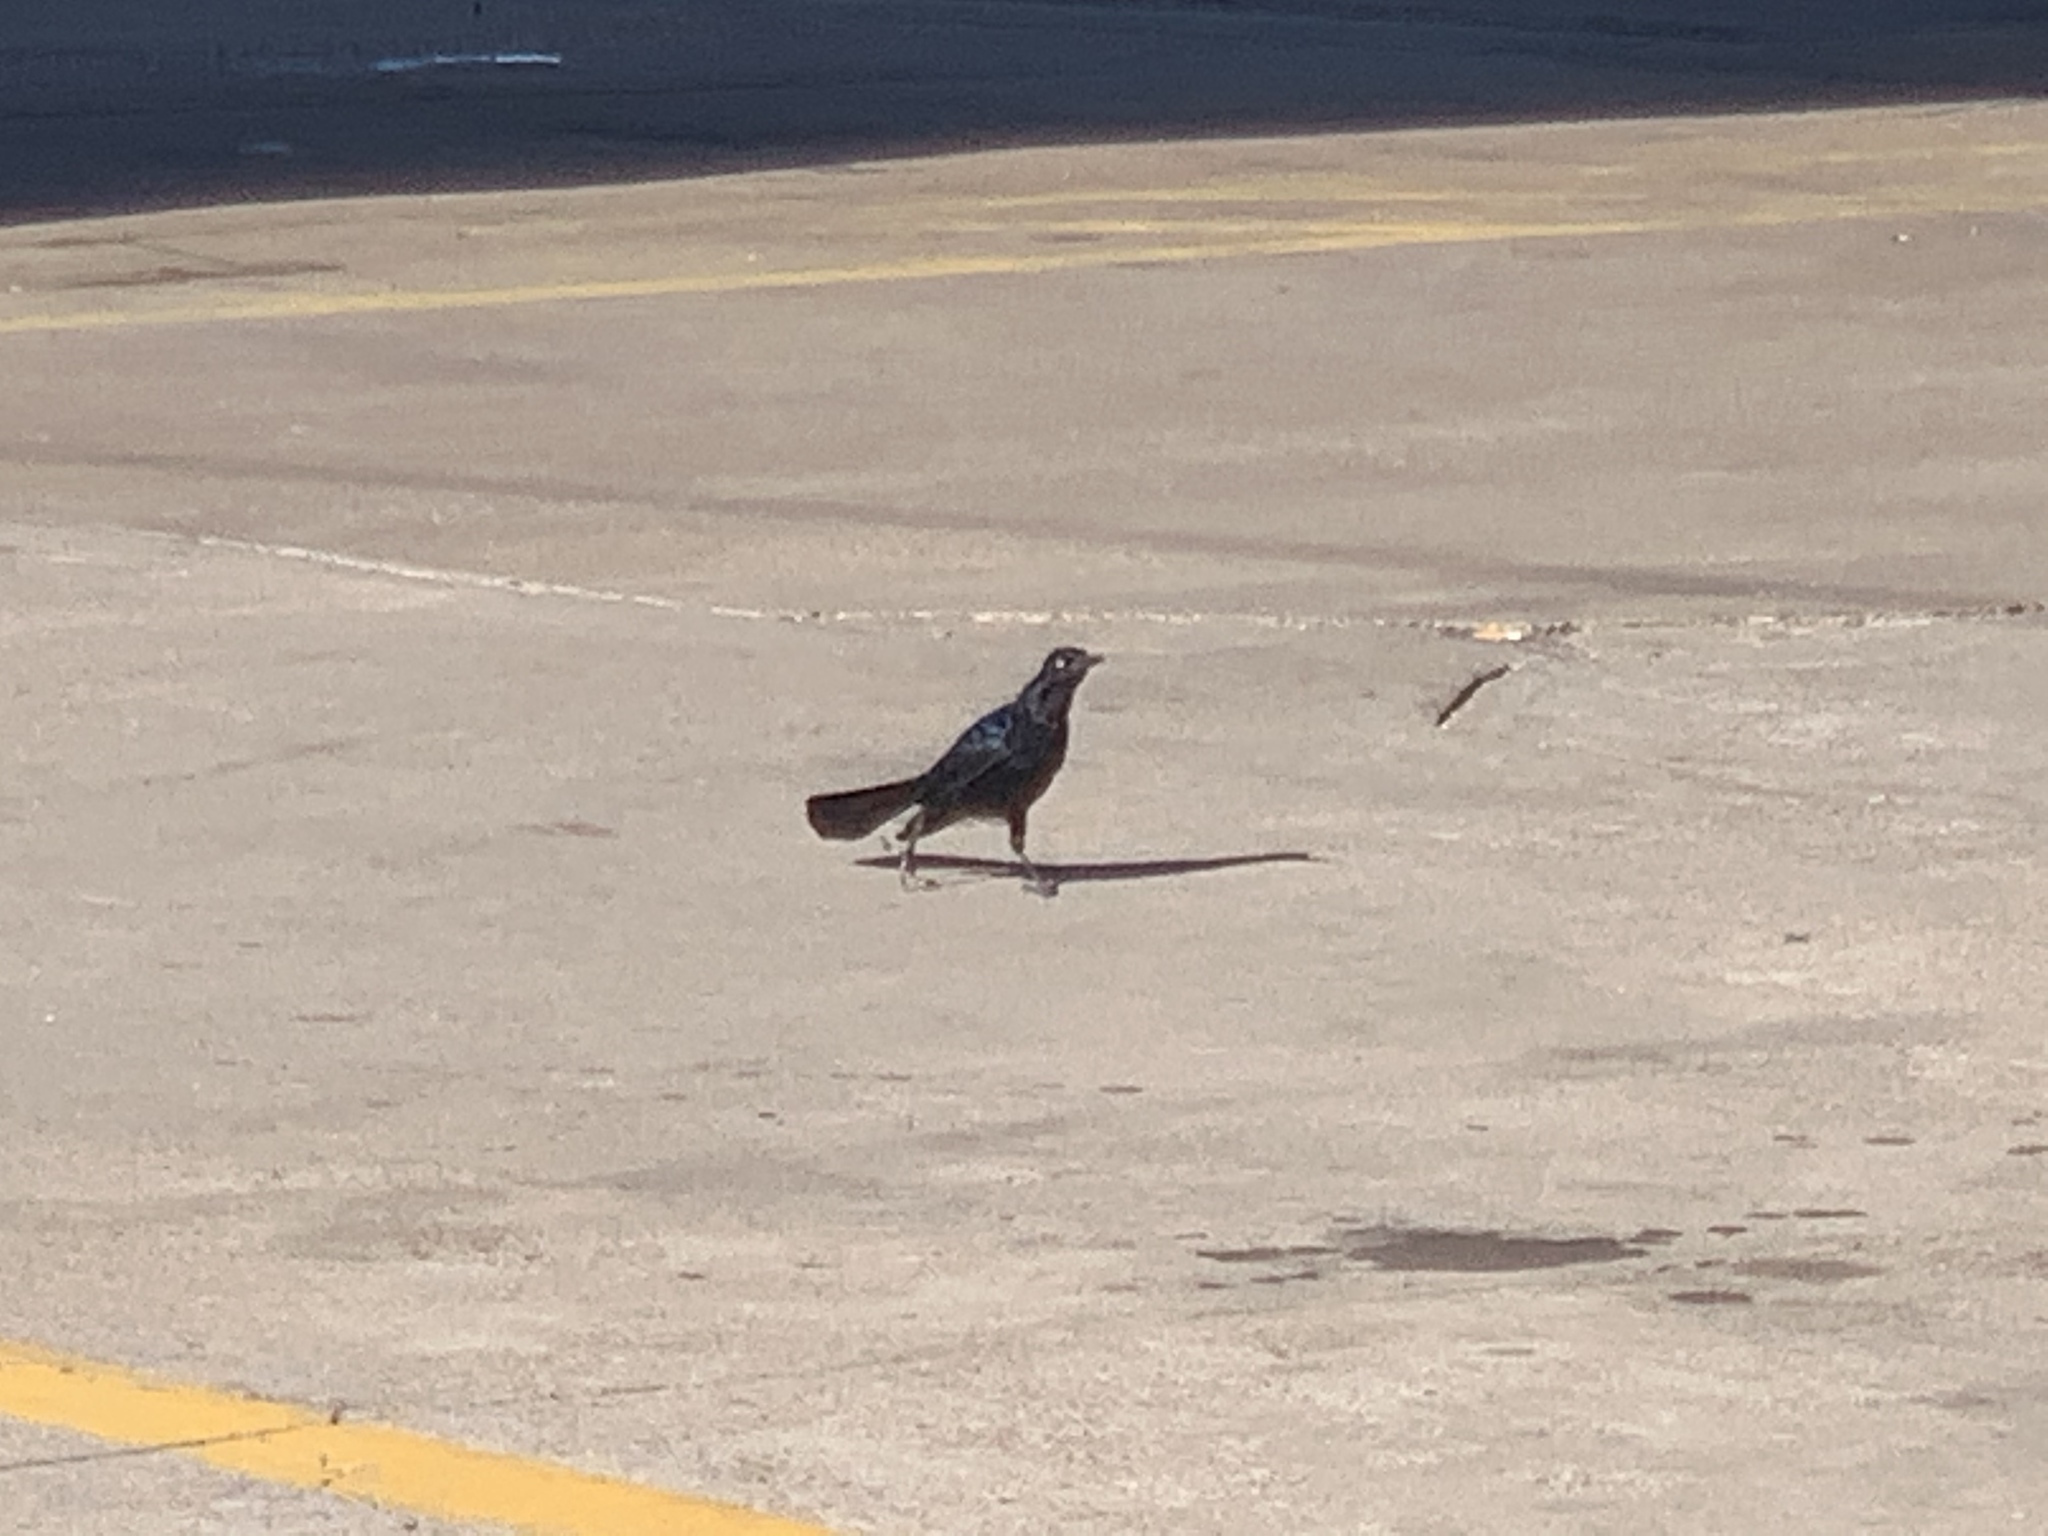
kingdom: Animalia
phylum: Chordata
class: Aves
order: Passeriformes
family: Icteridae
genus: Quiscalus
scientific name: Quiscalus mexicanus
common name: Great-tailed grackle
